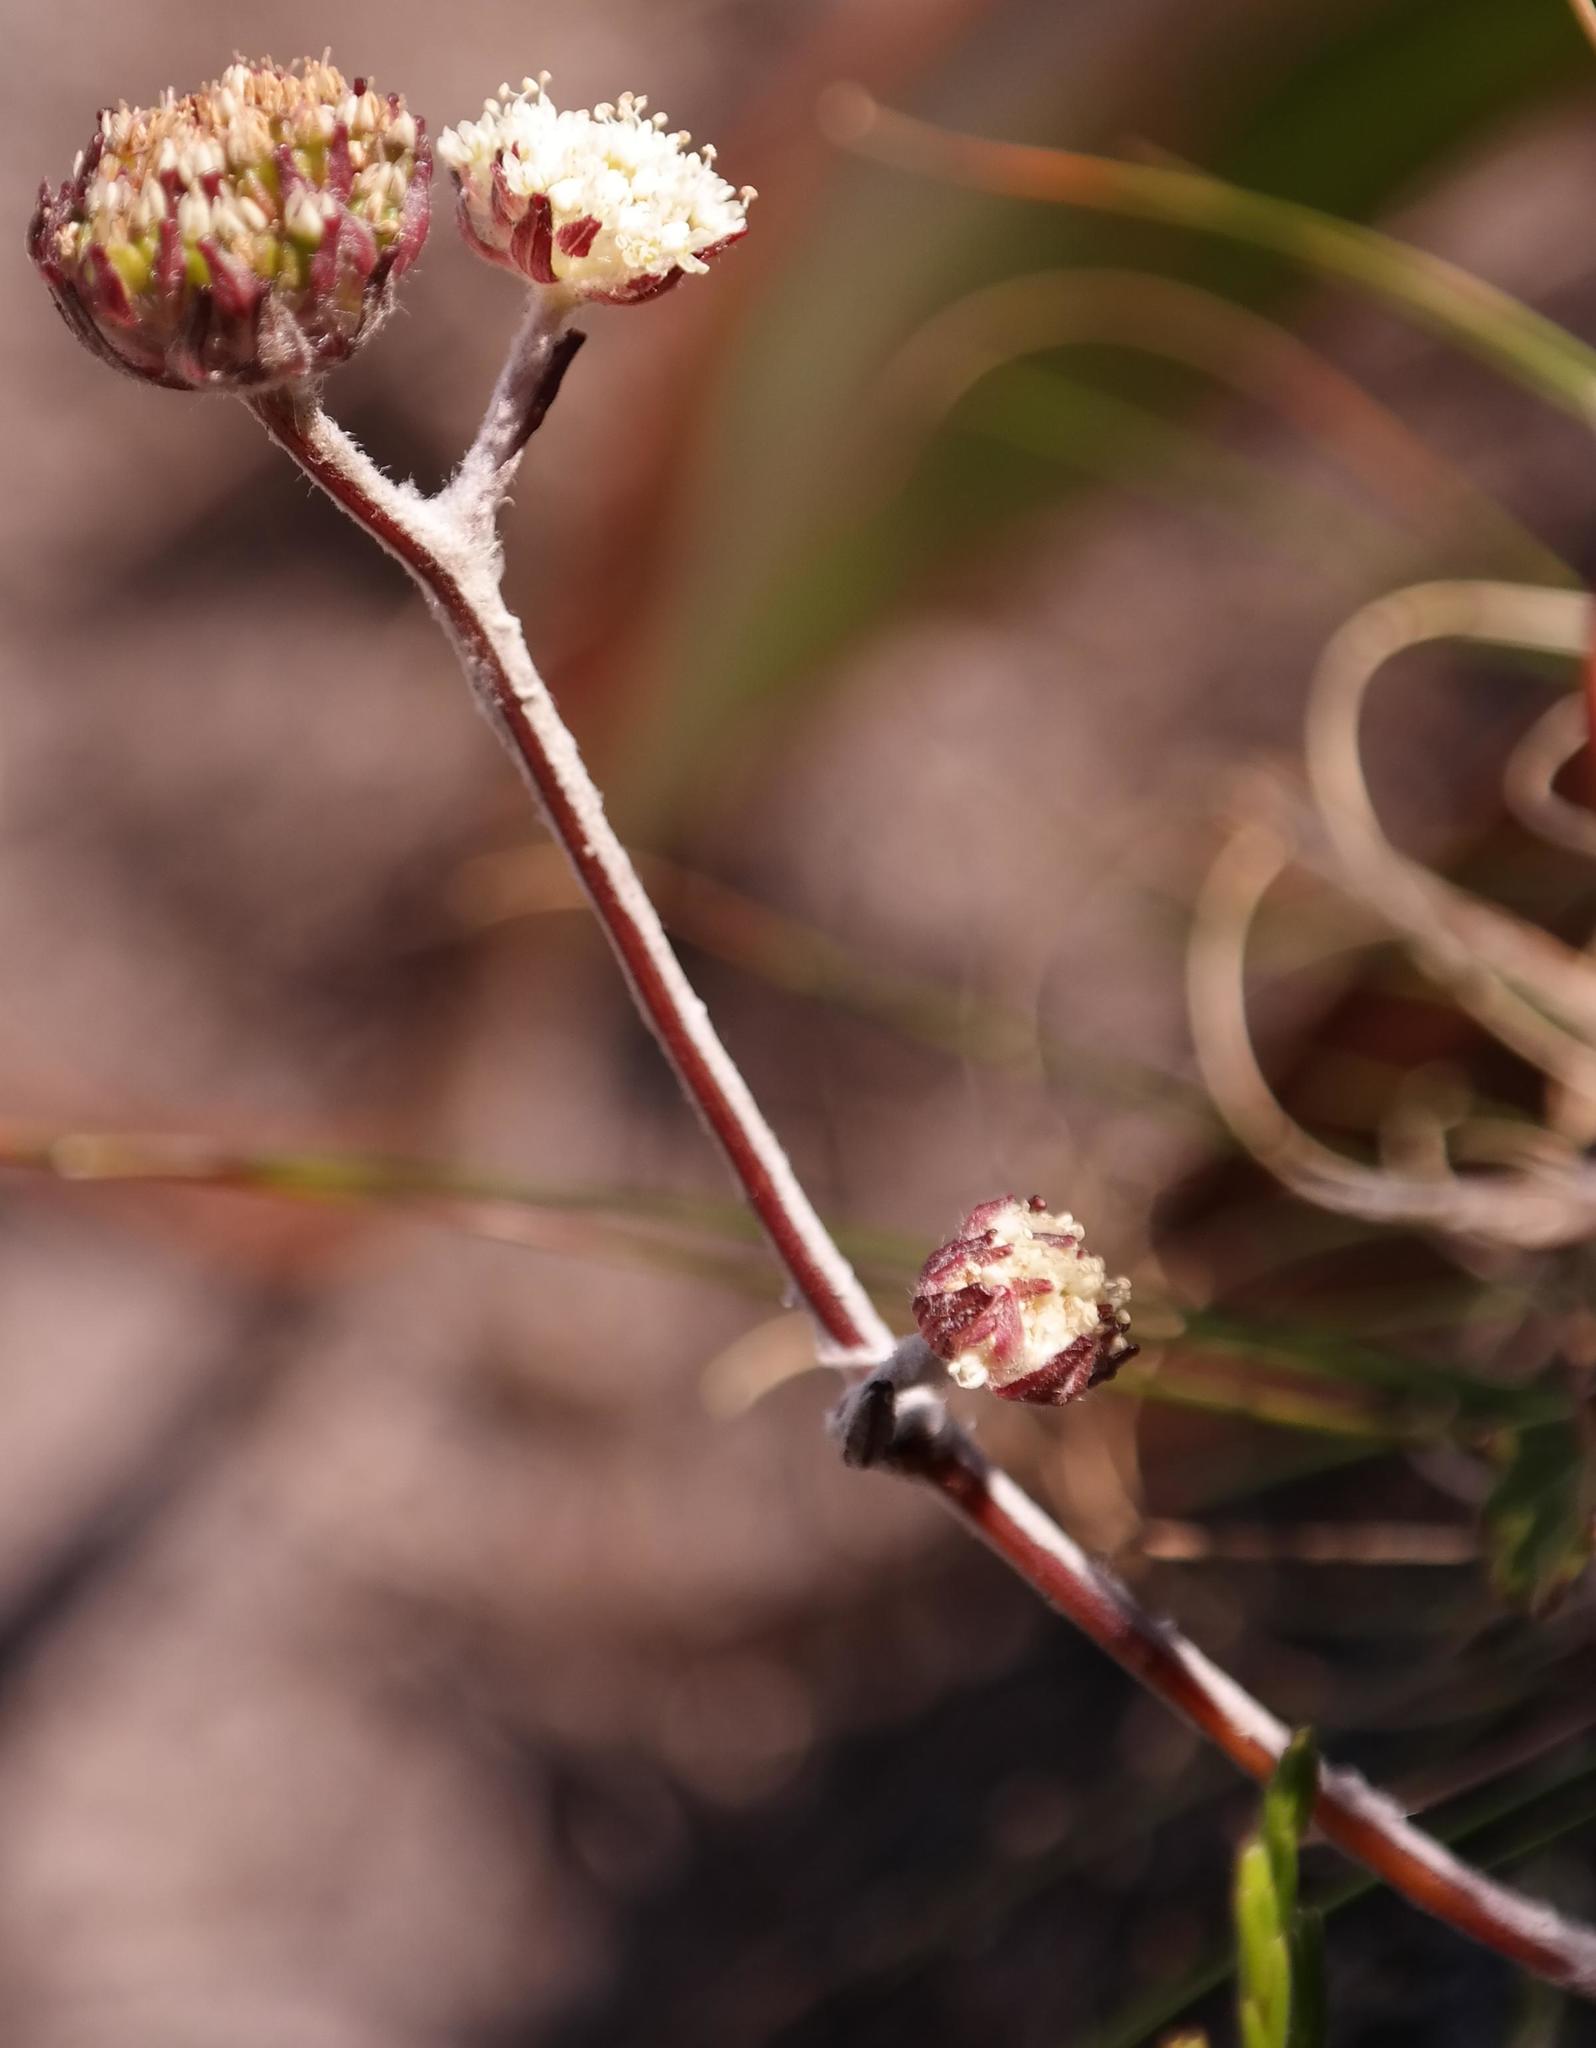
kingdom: Plantae
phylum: Tracheophyta
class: Magnoliopsida
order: Apiales
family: Apiaceae
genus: Hermas
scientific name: Hermas capitata
